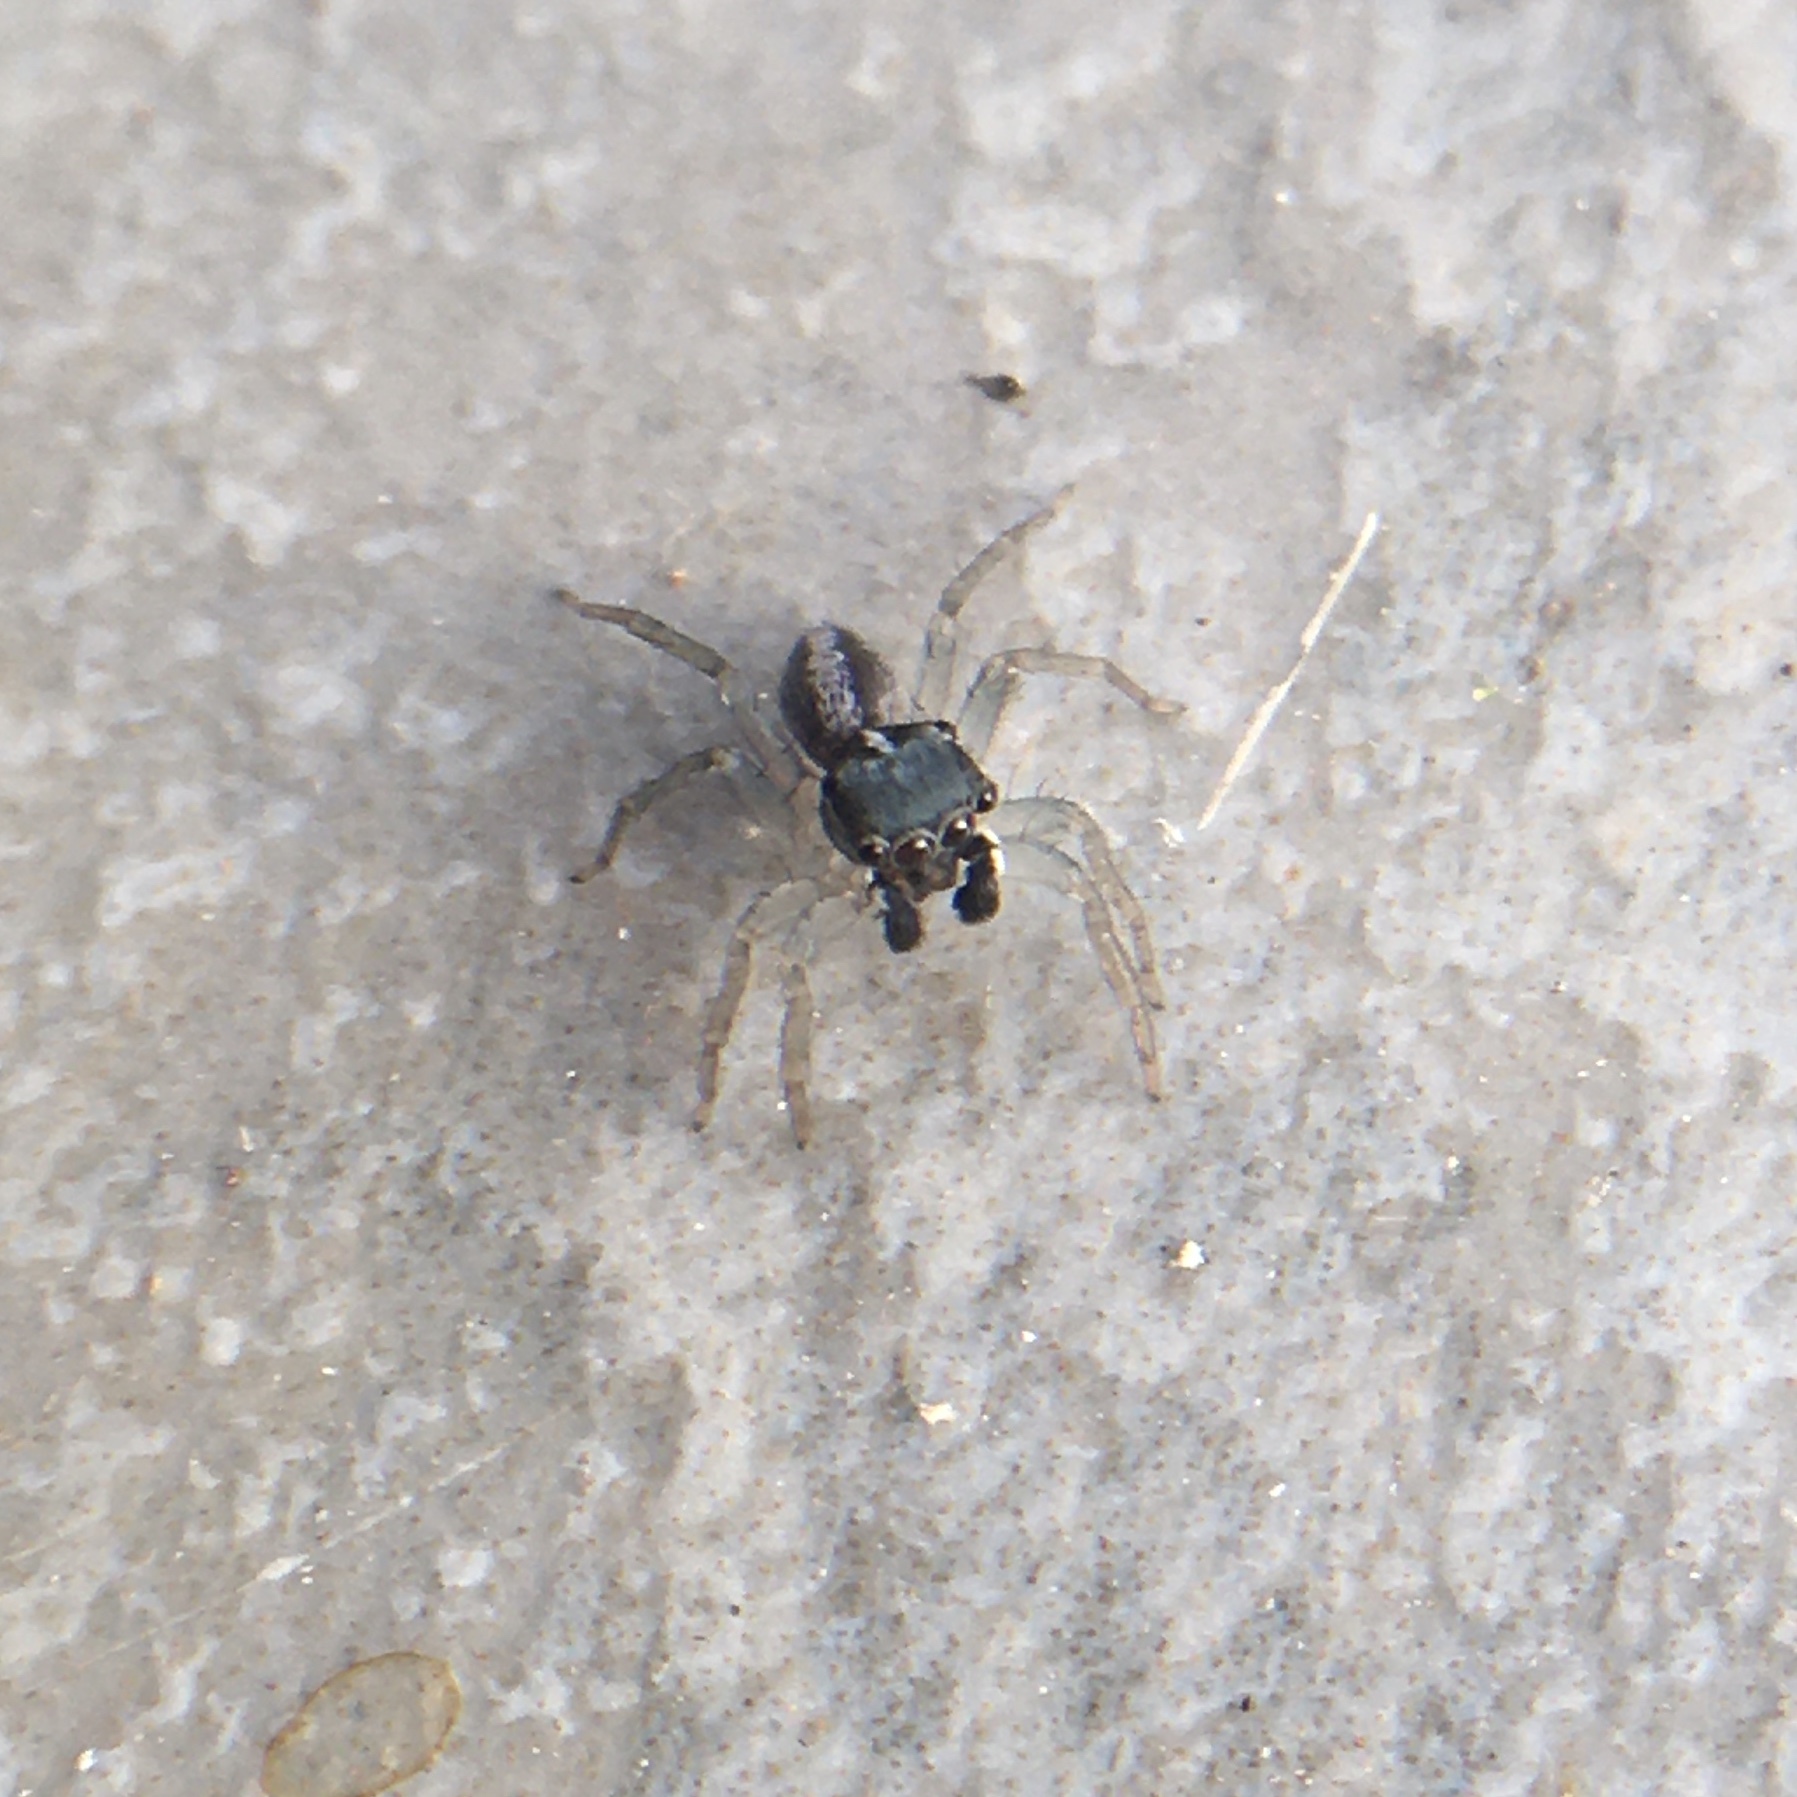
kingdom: Animalia
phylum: Arthropoda
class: Arachnida
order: Araneae
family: Salticidae
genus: Maeota
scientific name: Maeota dorsalis
